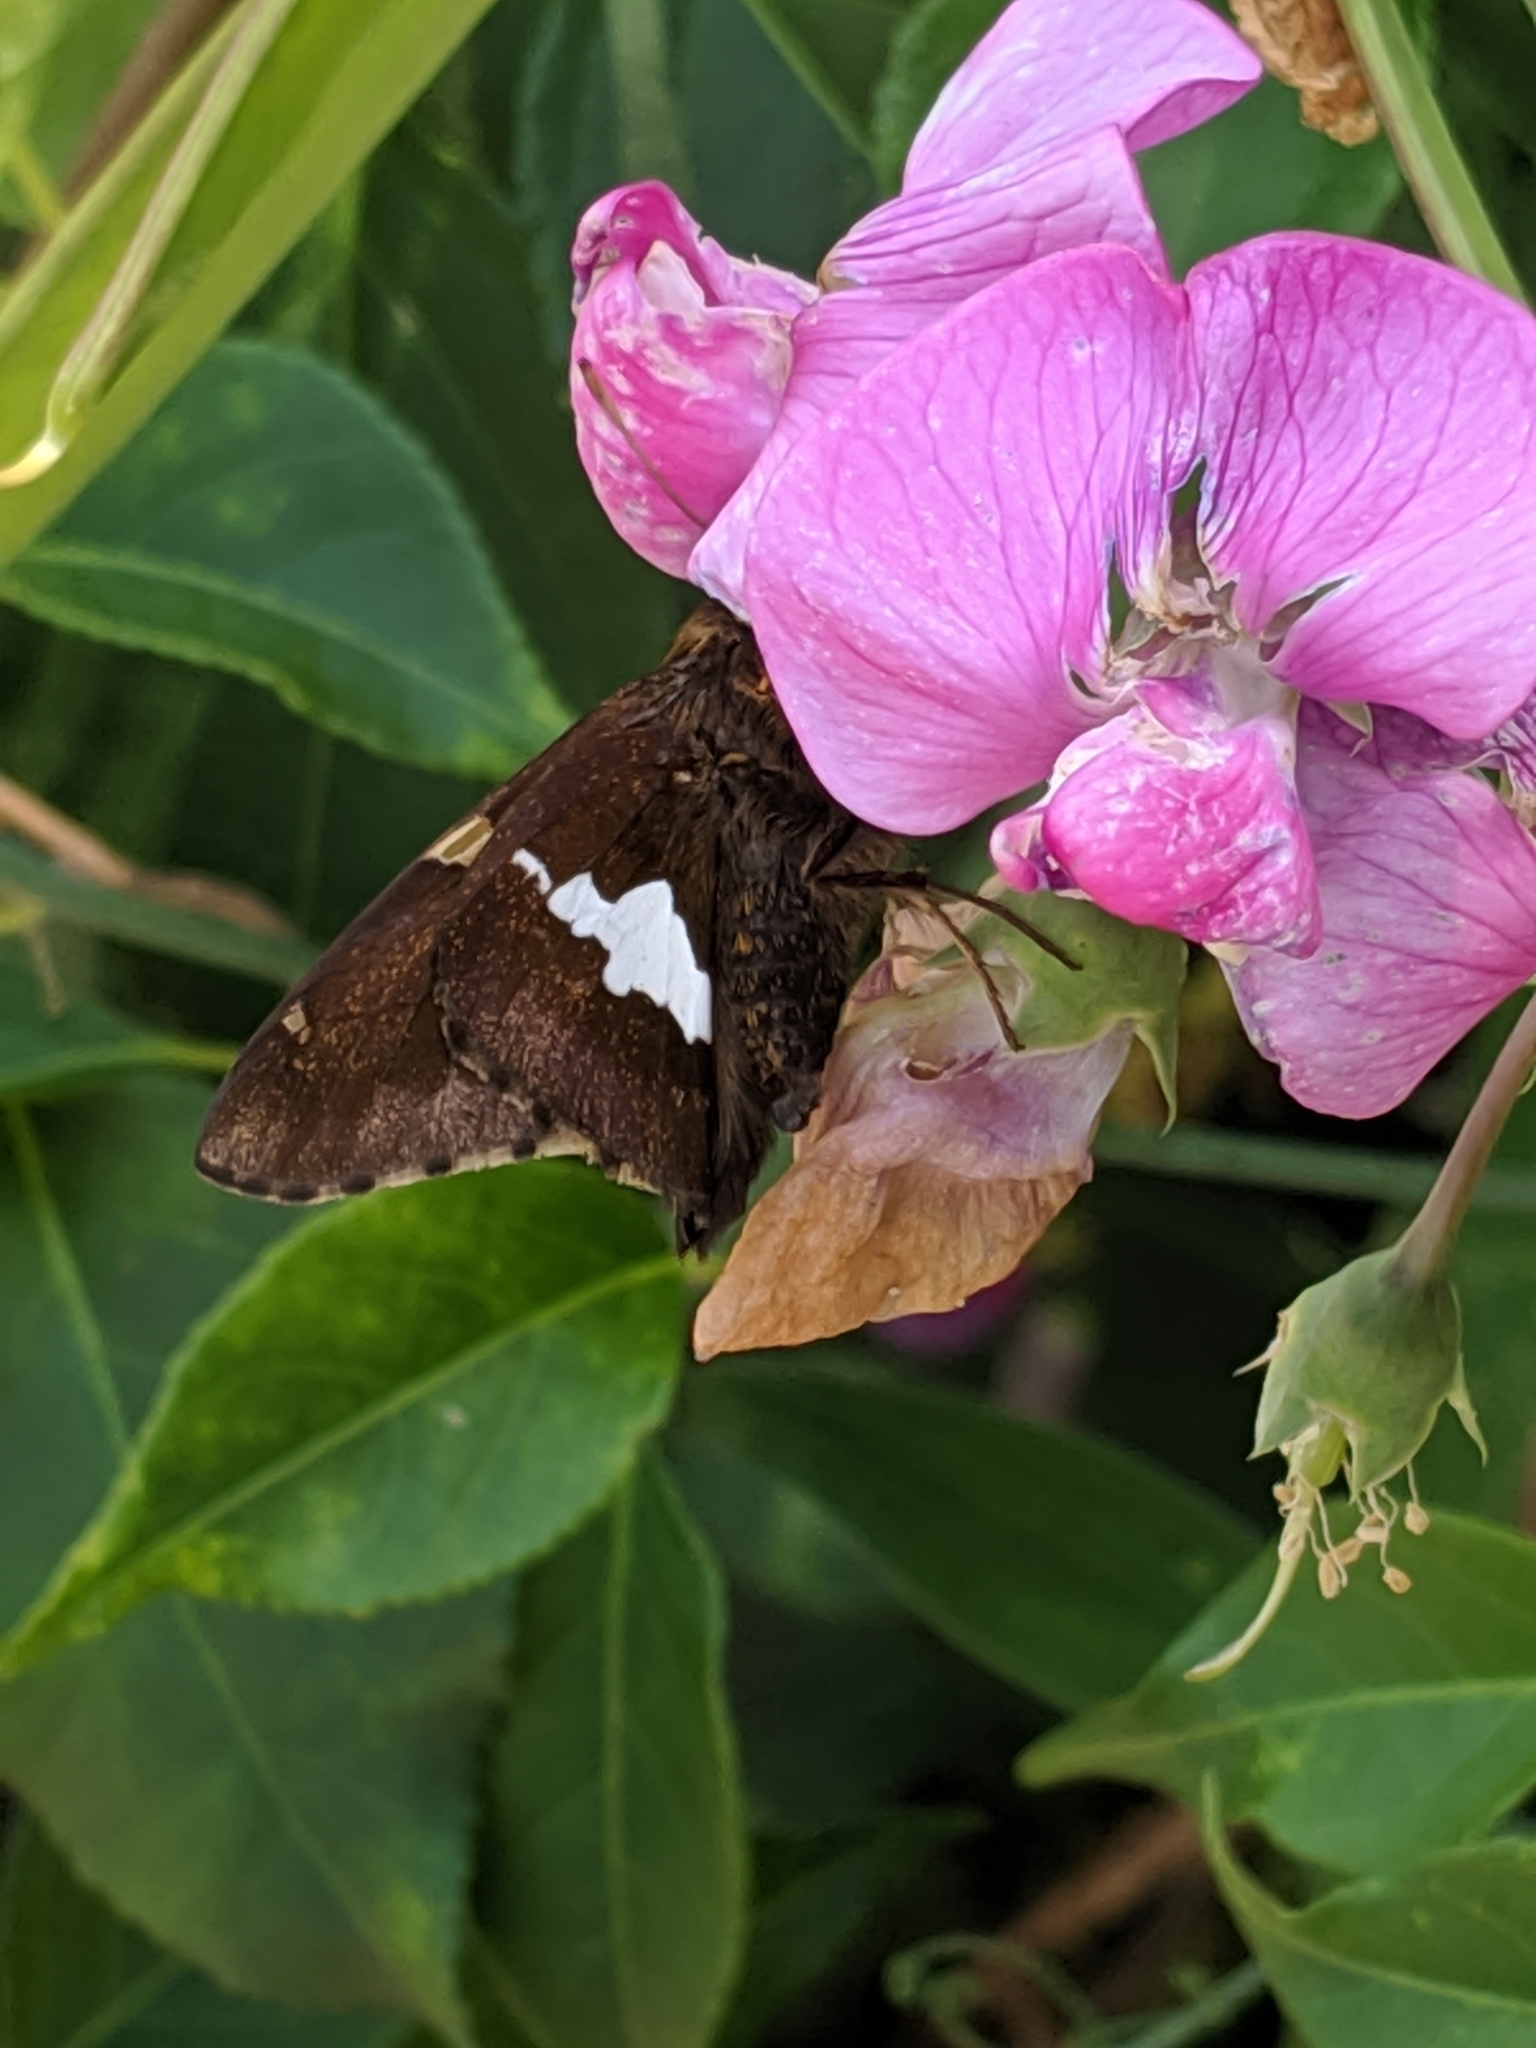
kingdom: Animalia
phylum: Arthropoda
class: Insecta
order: Lepidoptera
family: Hesperiidae
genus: Epargyreus
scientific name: Epargyreus clarus
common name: Silver-spotted skipper
